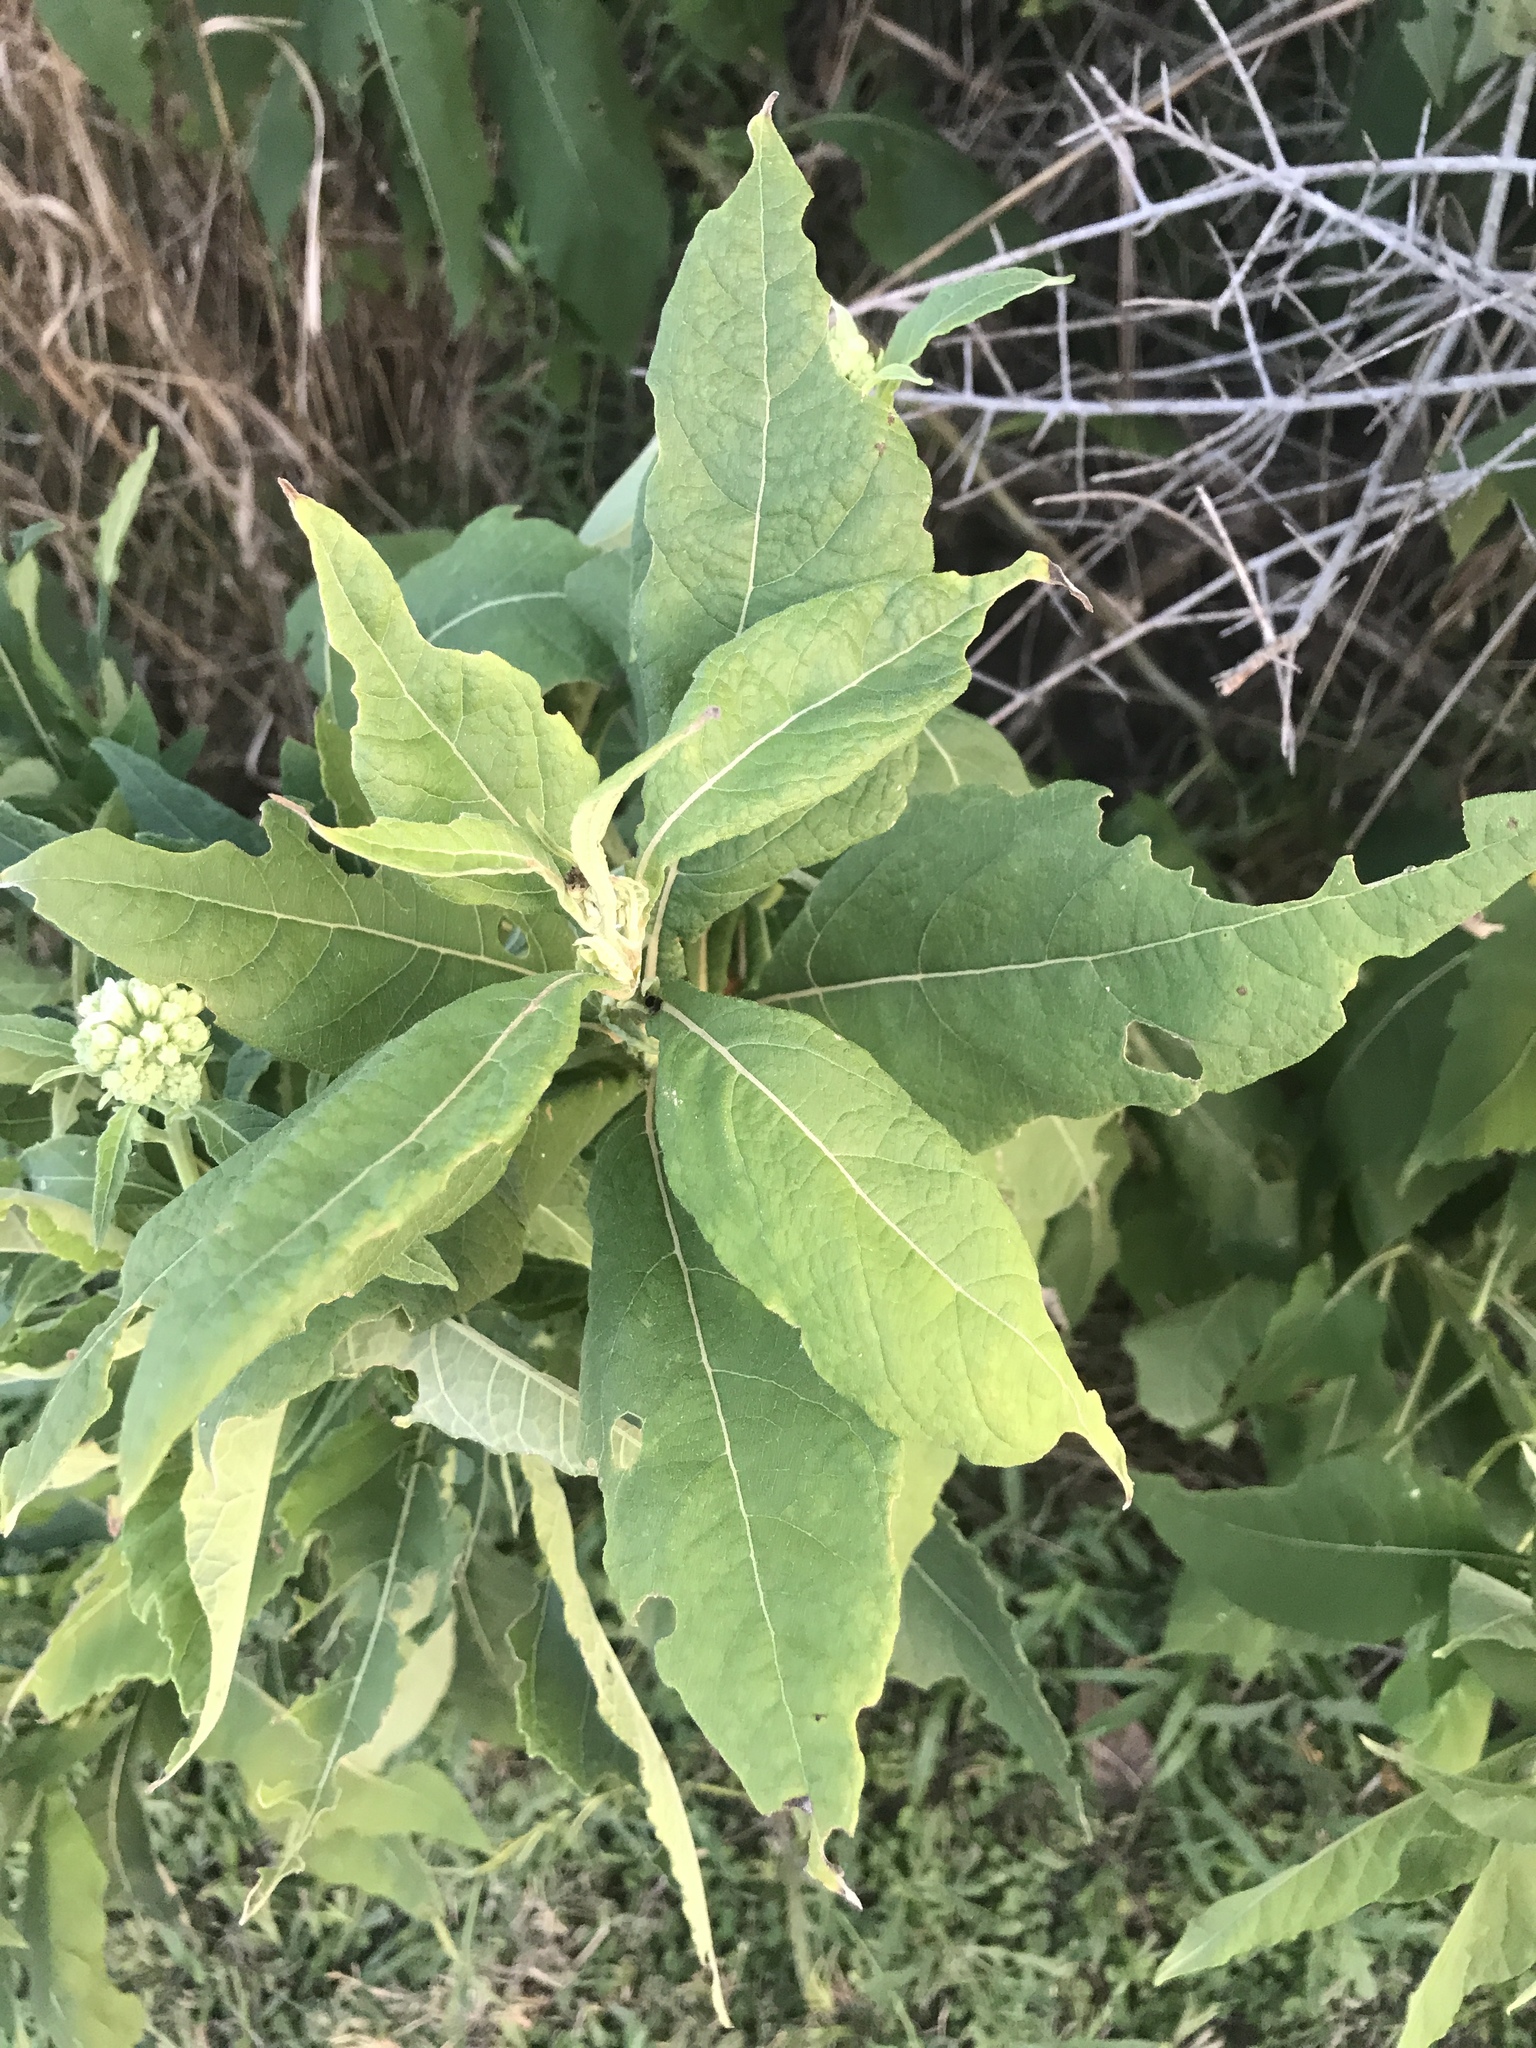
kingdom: Plantae
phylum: Tracheophyta
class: Magnoliopsida
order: Asterales
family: Asteraceae
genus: Verbesina
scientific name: Verbesina virginica
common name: Frostweed
